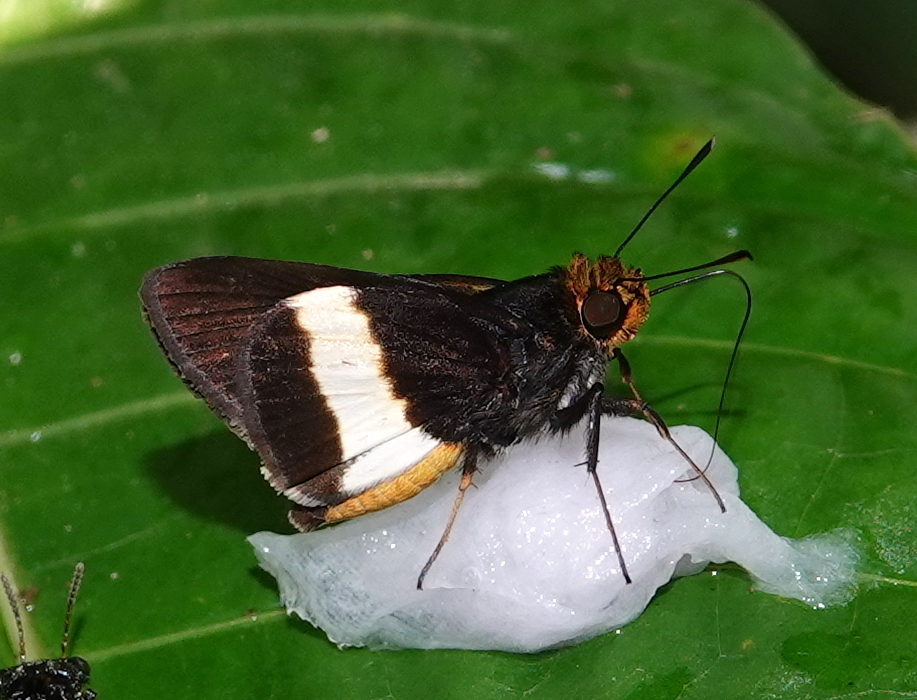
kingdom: Animalia
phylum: Arthropoda
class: Insecta
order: Lepidoptera
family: Hesperiidae
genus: Metron
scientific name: Metron chrysogastra
